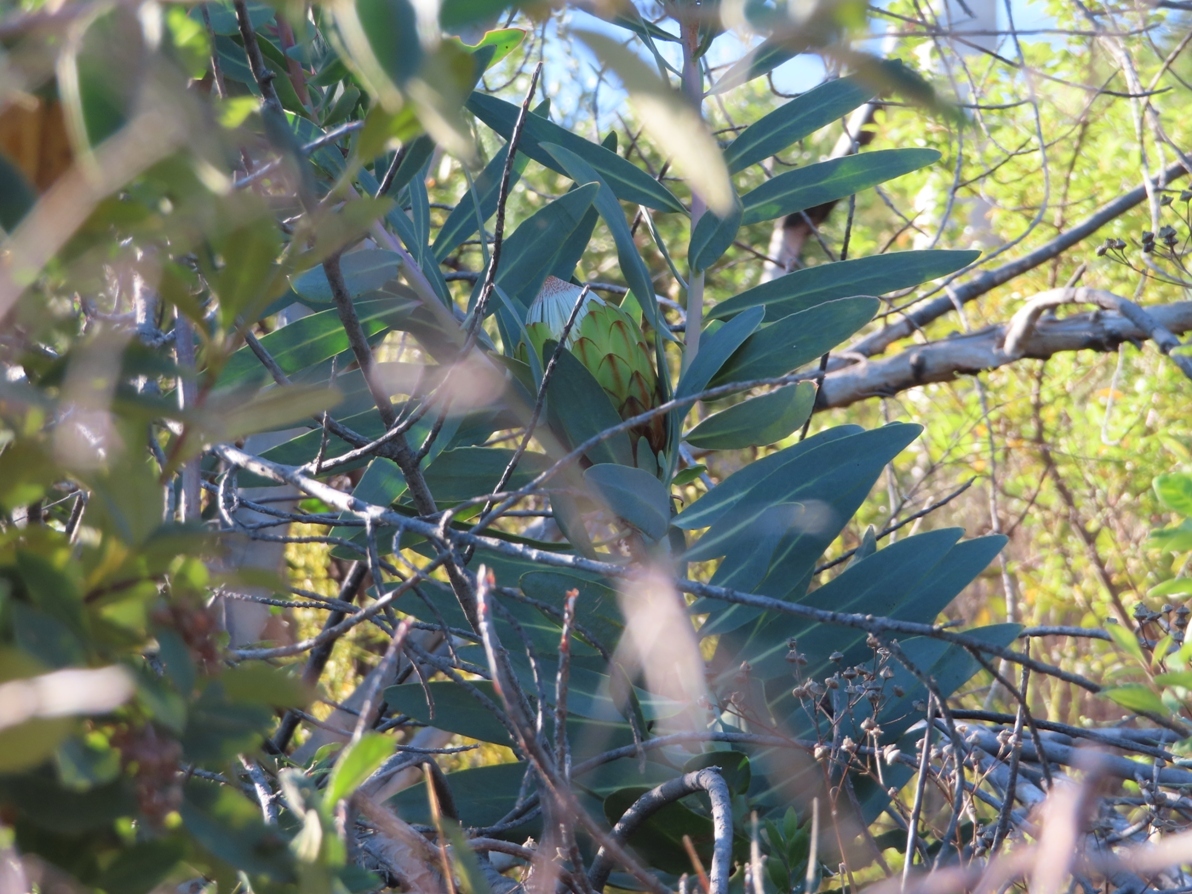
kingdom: Plantae
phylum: Tracheophyta
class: Magnoliopsida
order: Proteales
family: Proteaceae
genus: Protea
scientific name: Protea nitida
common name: Tree protea
